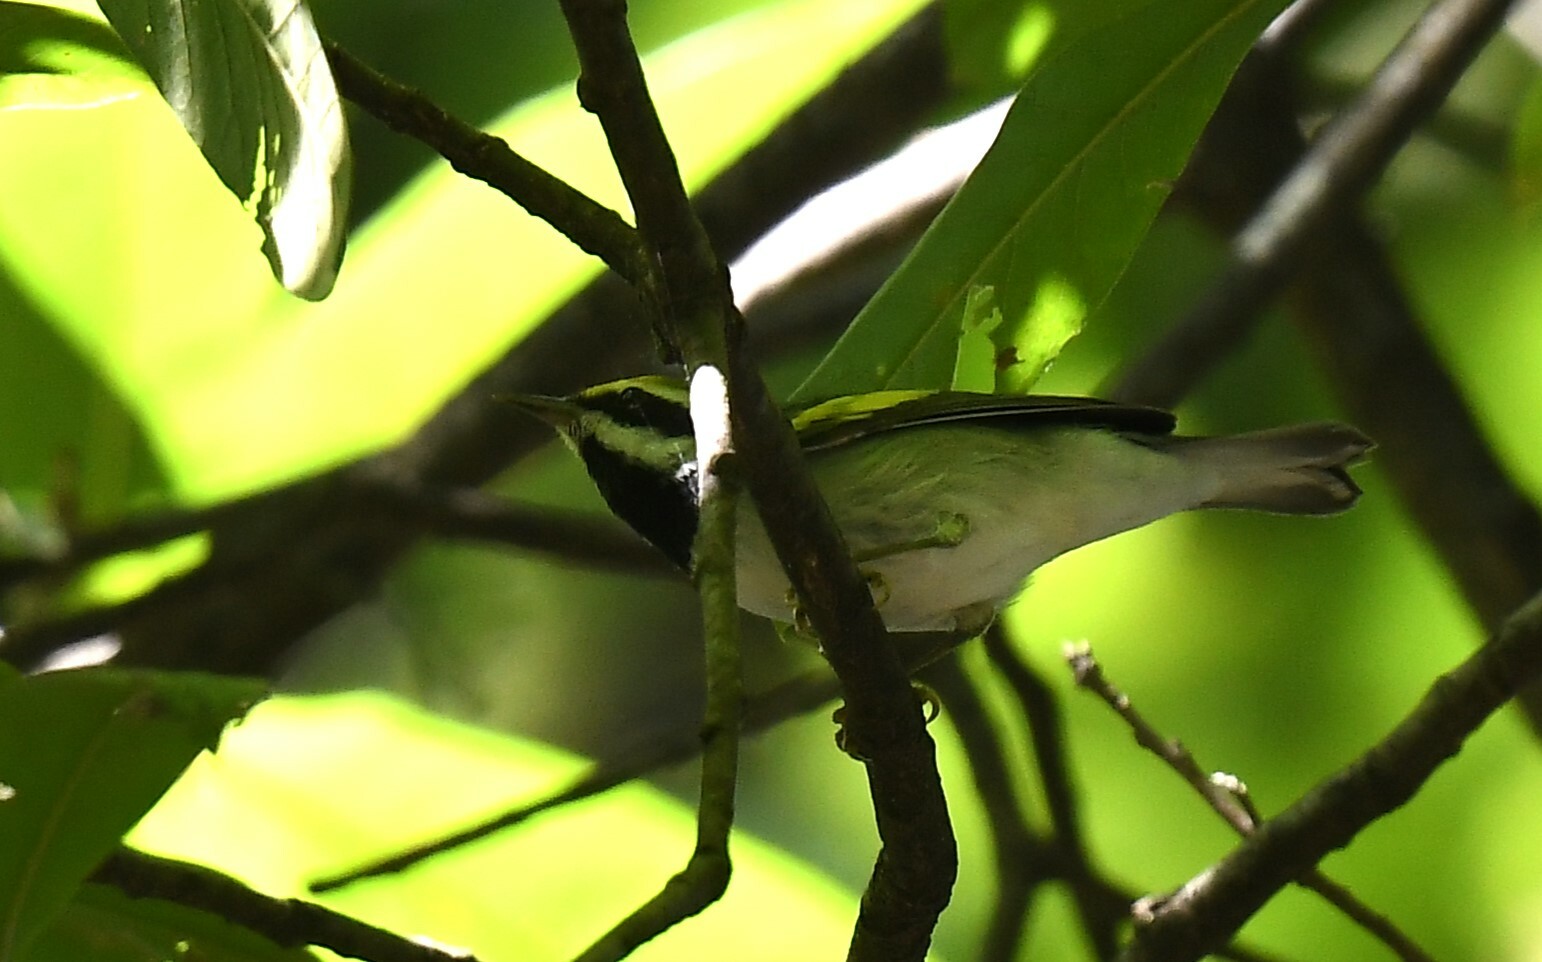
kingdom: Animalia
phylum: Chordata
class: Aves
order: Passeriformes
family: Parulidae
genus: Vermivora
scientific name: Vermivora chrysoptera
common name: Golden-winged warbler
